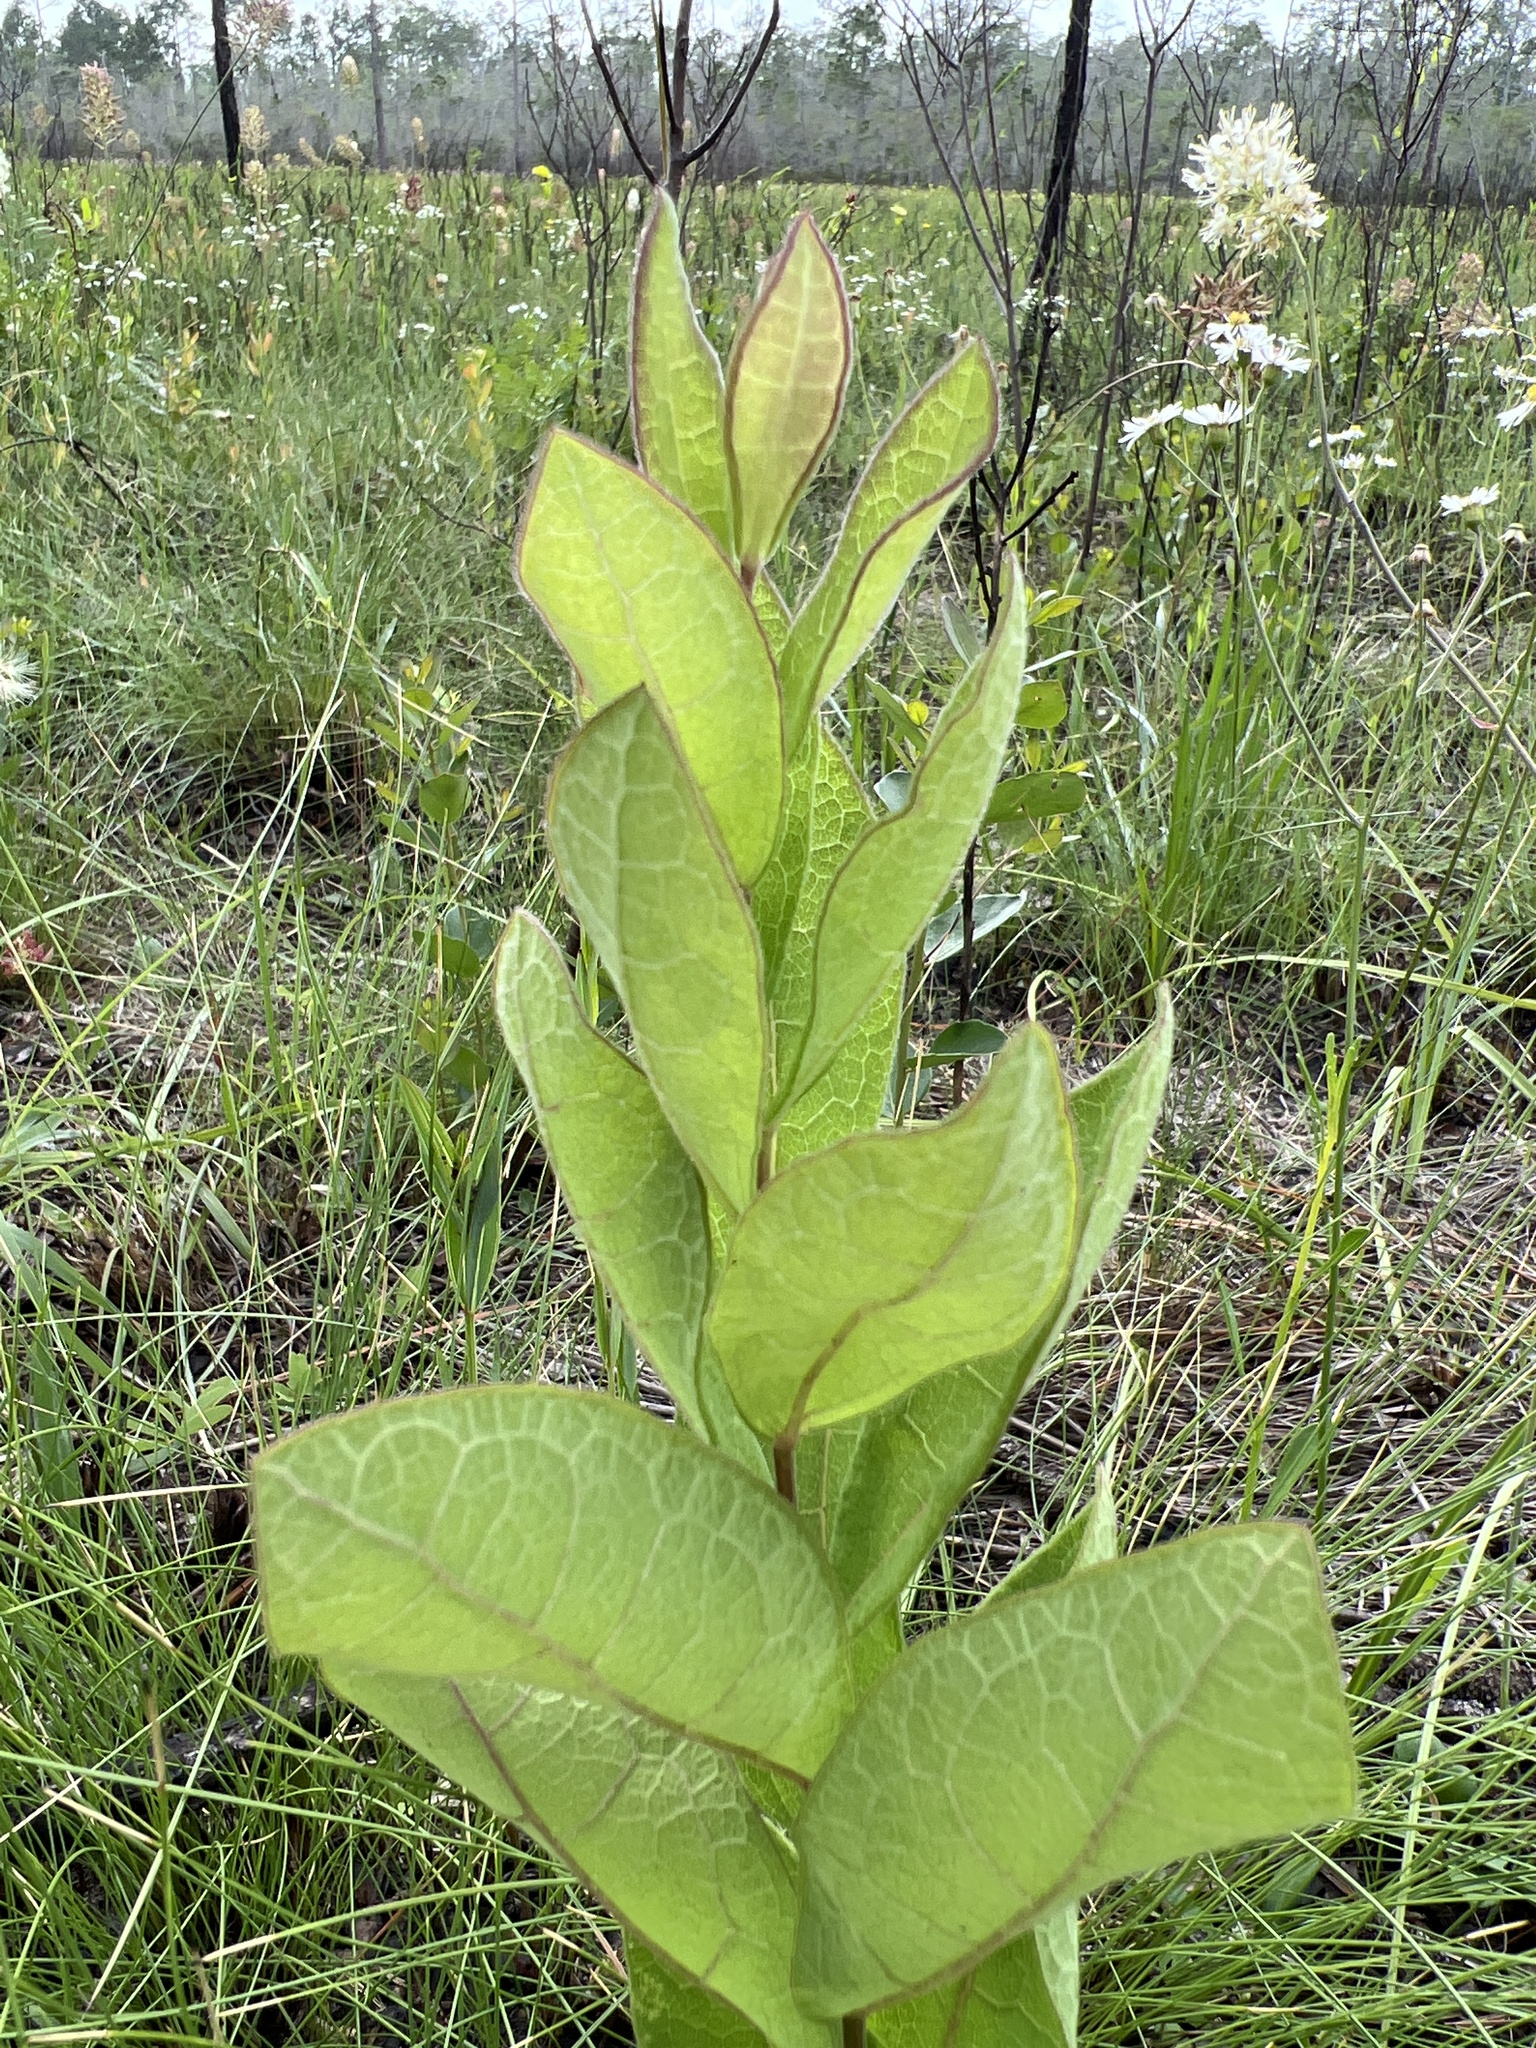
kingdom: Plantae
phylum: Tracheophyta
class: Magnoliopsida
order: Asterales
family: Asteraceae
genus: Oclemena
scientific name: Oclemena reticulata
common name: Pinebarren aster
